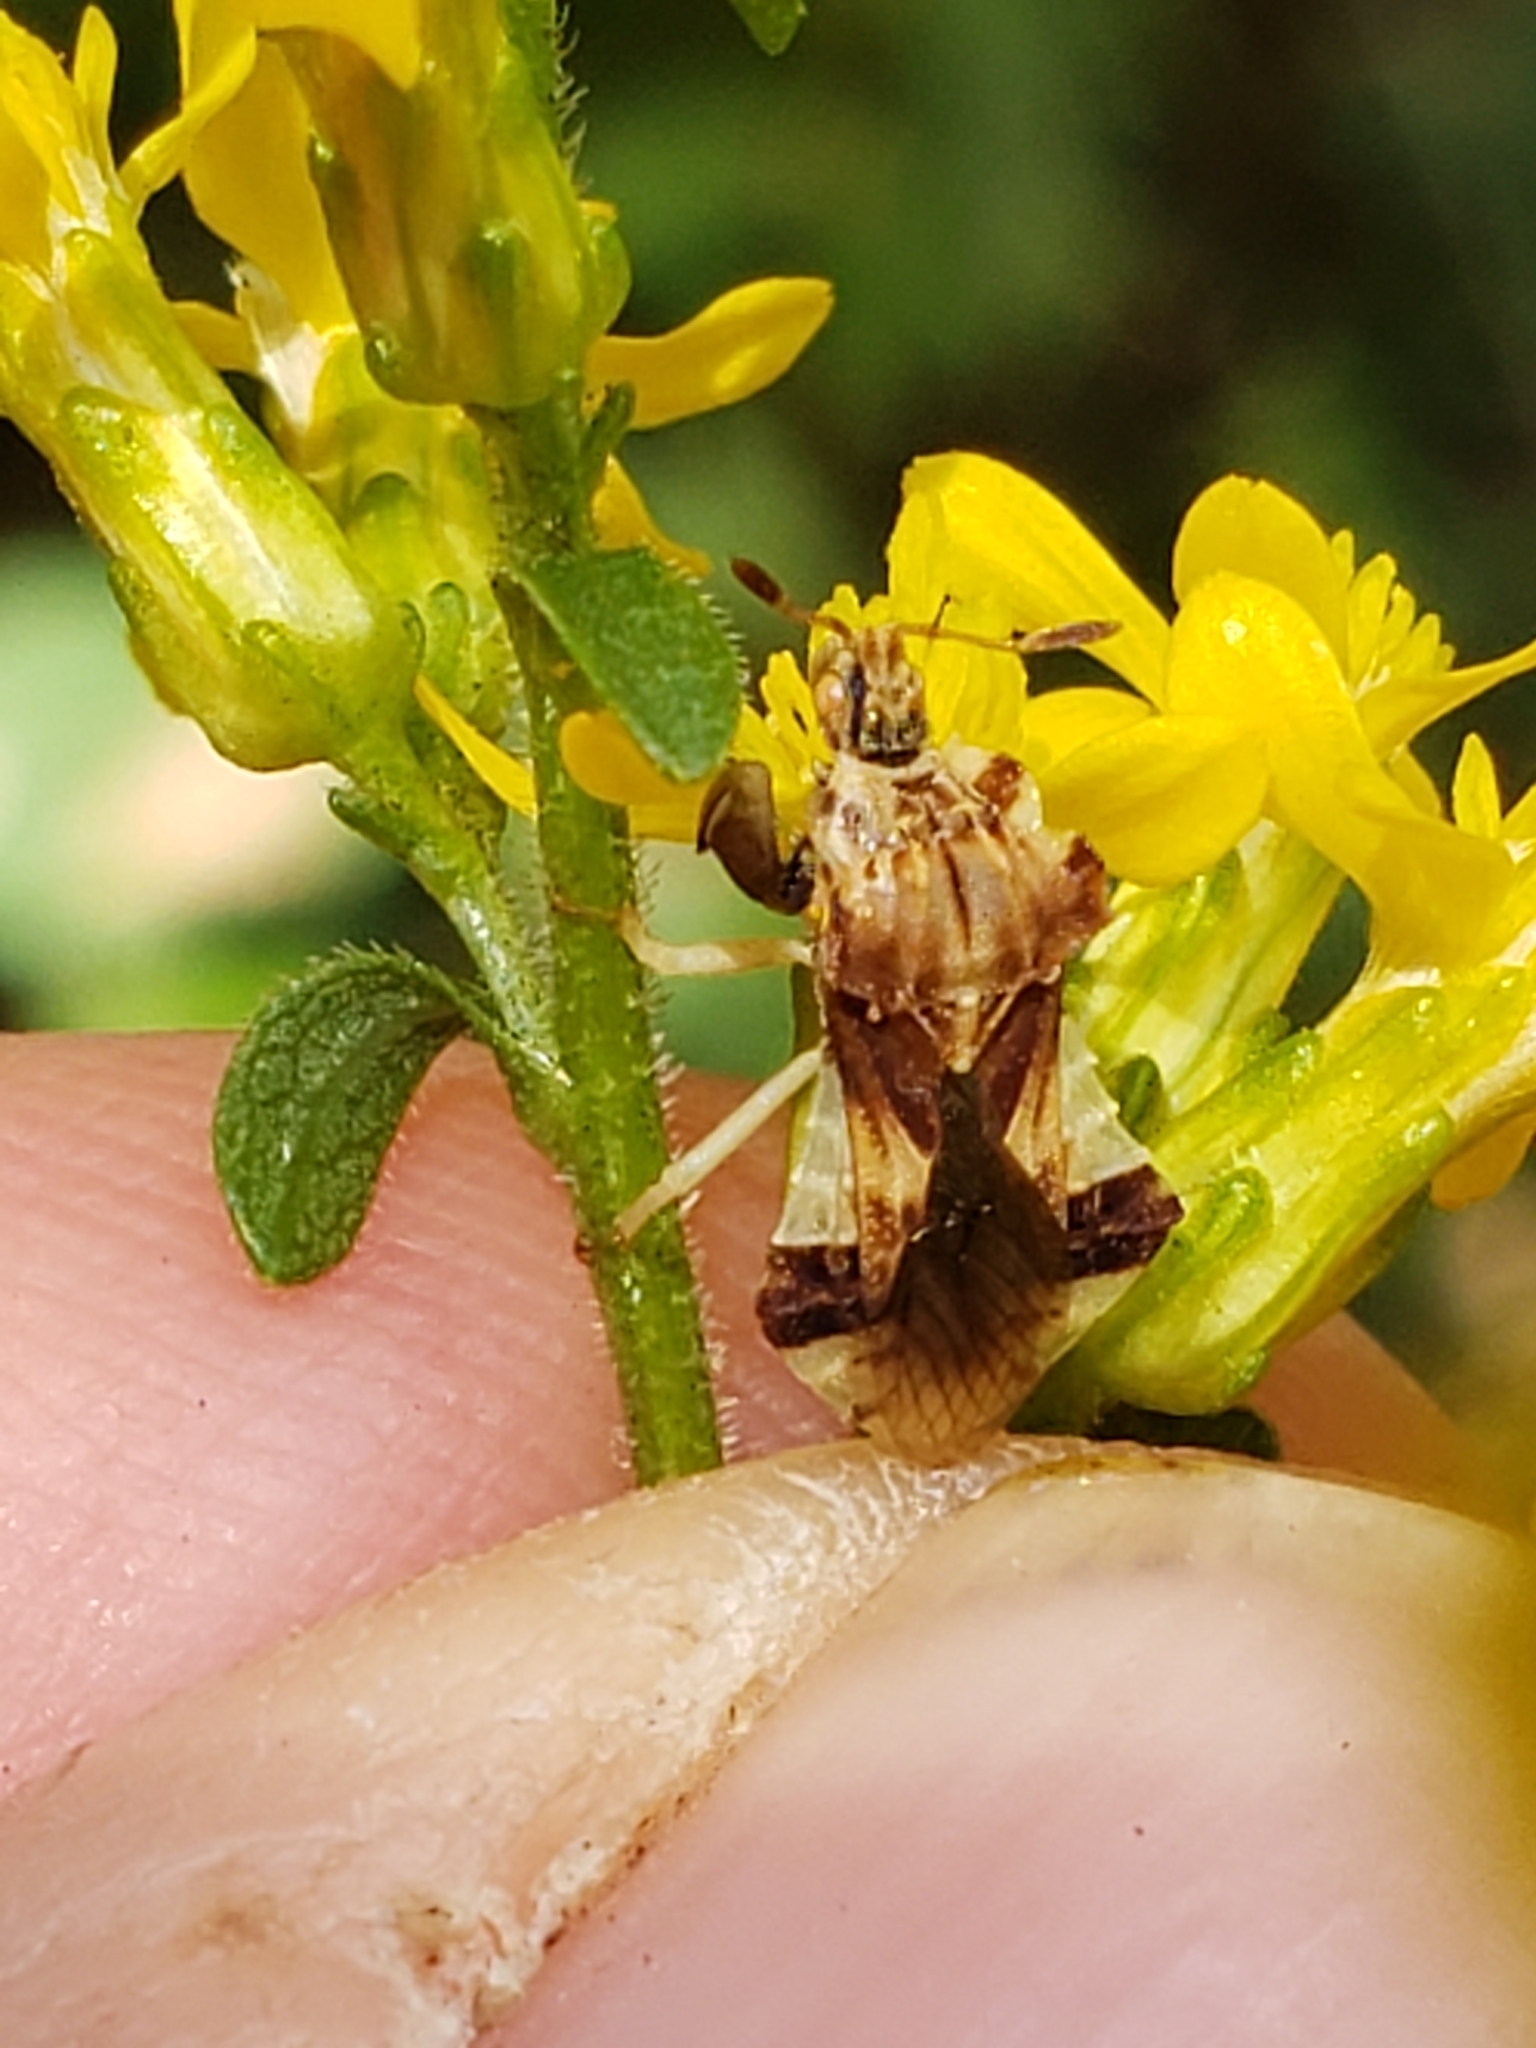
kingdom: Animalia
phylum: Arthropoda
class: Insecta
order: Hemiptera
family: Reduviidae
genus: Phymata
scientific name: Phymata fasciata
